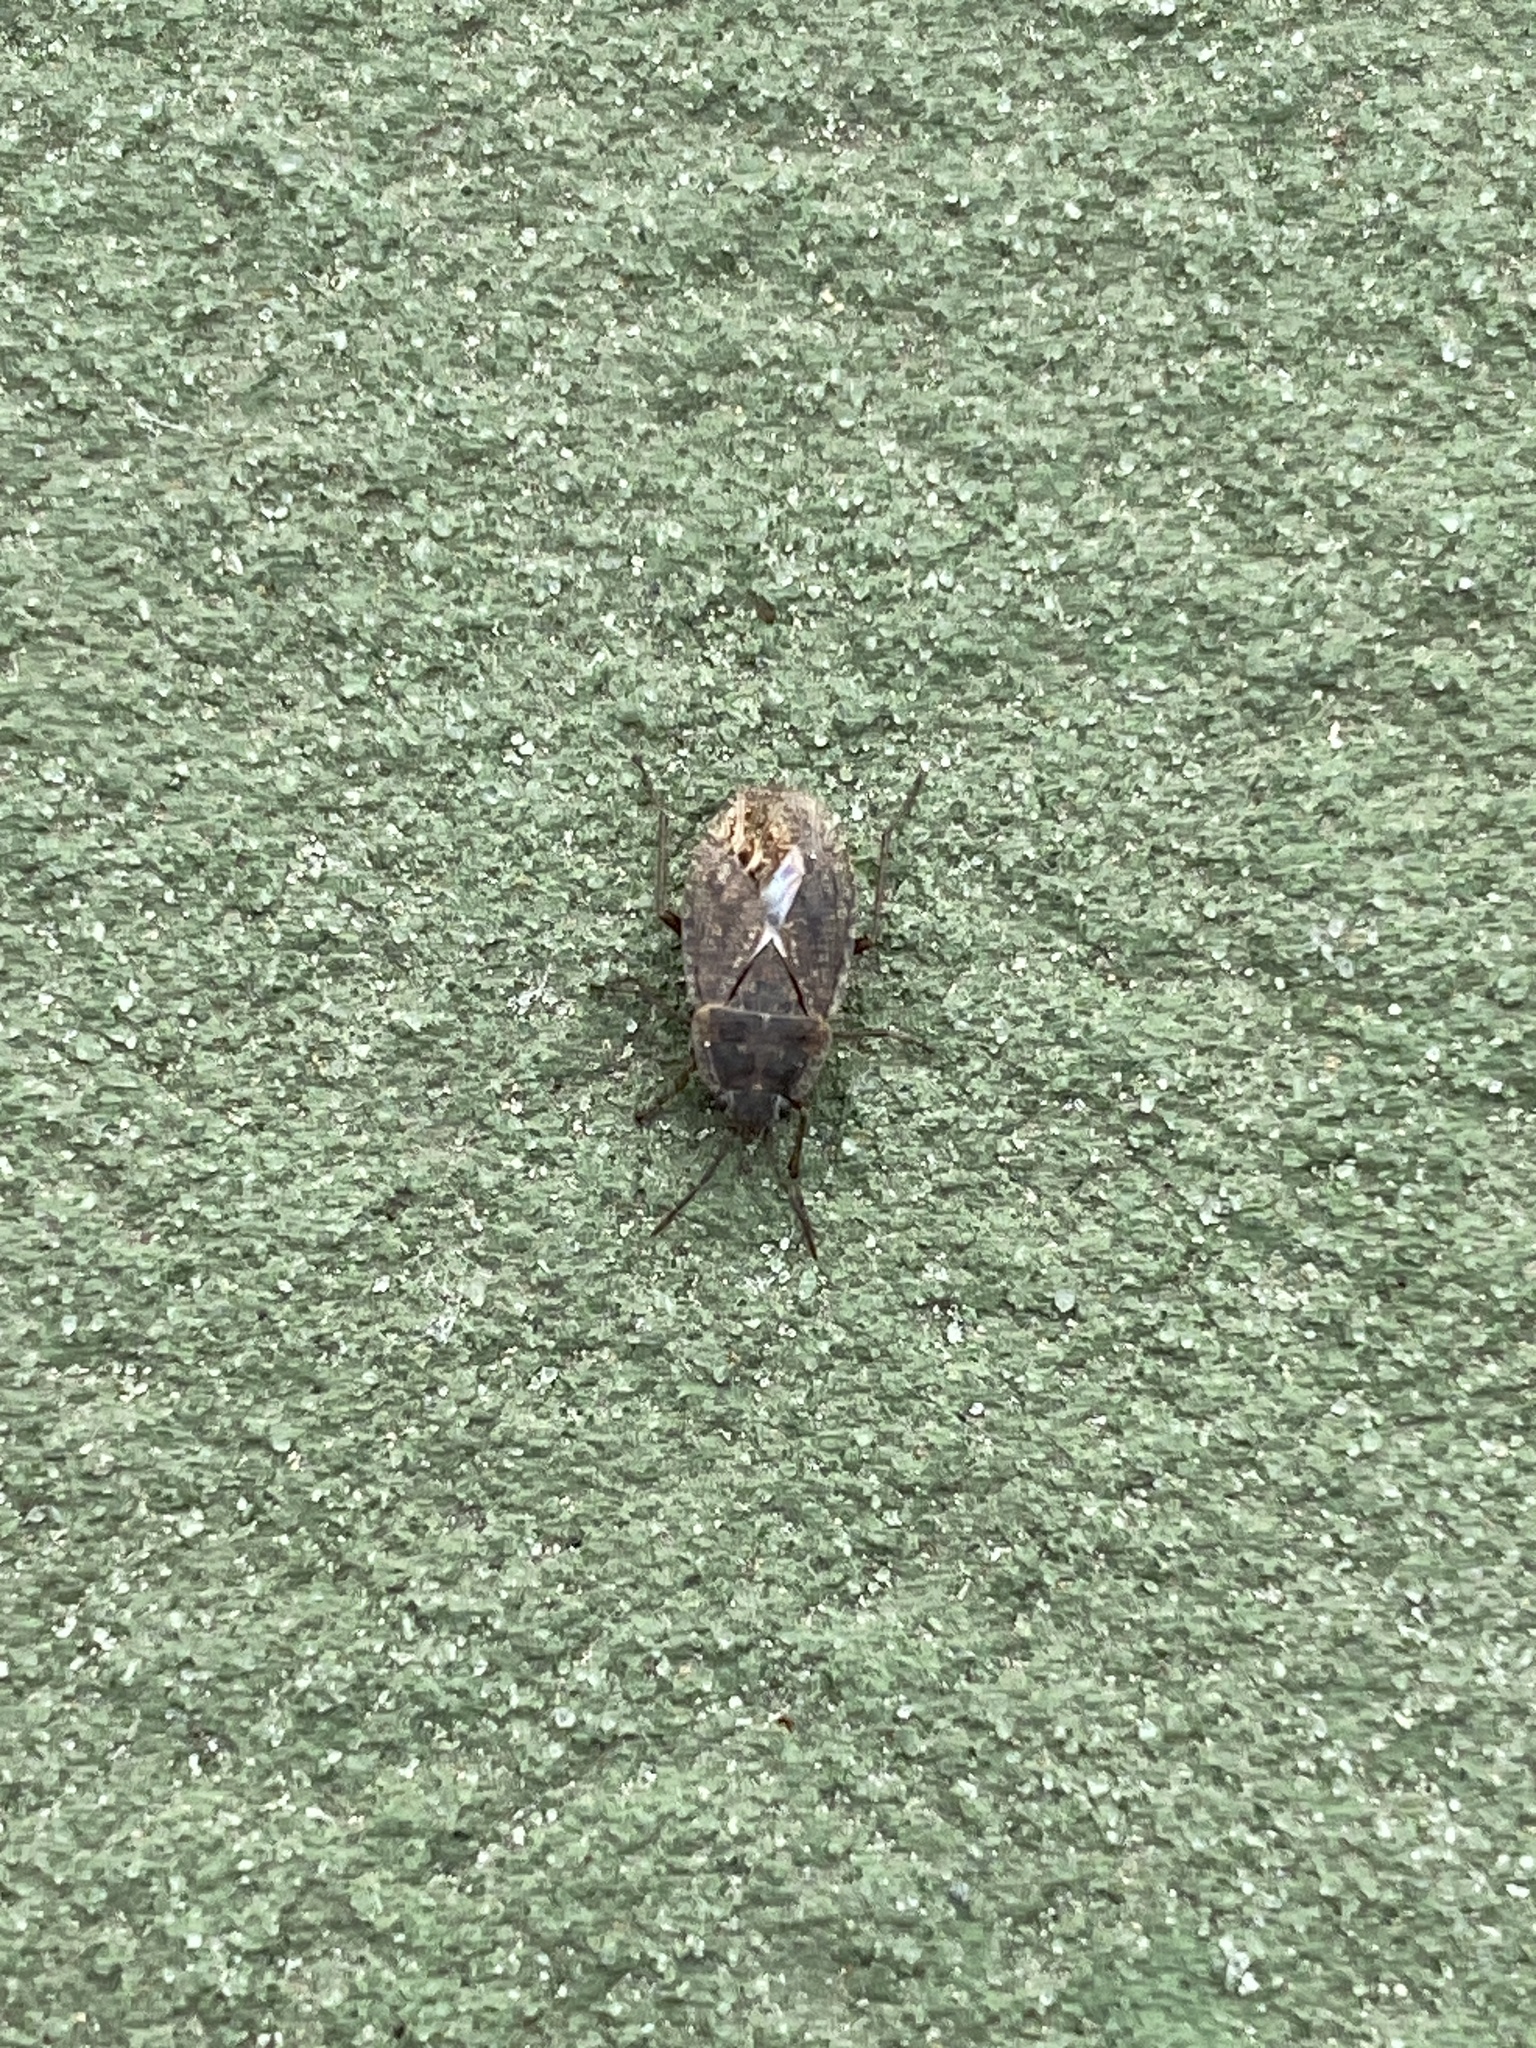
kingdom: Animalia
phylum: Arthropoda
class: Insecta
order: Hemiptera
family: Rhyparochromidae
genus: Emblethis
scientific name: Emblethis vicarius
